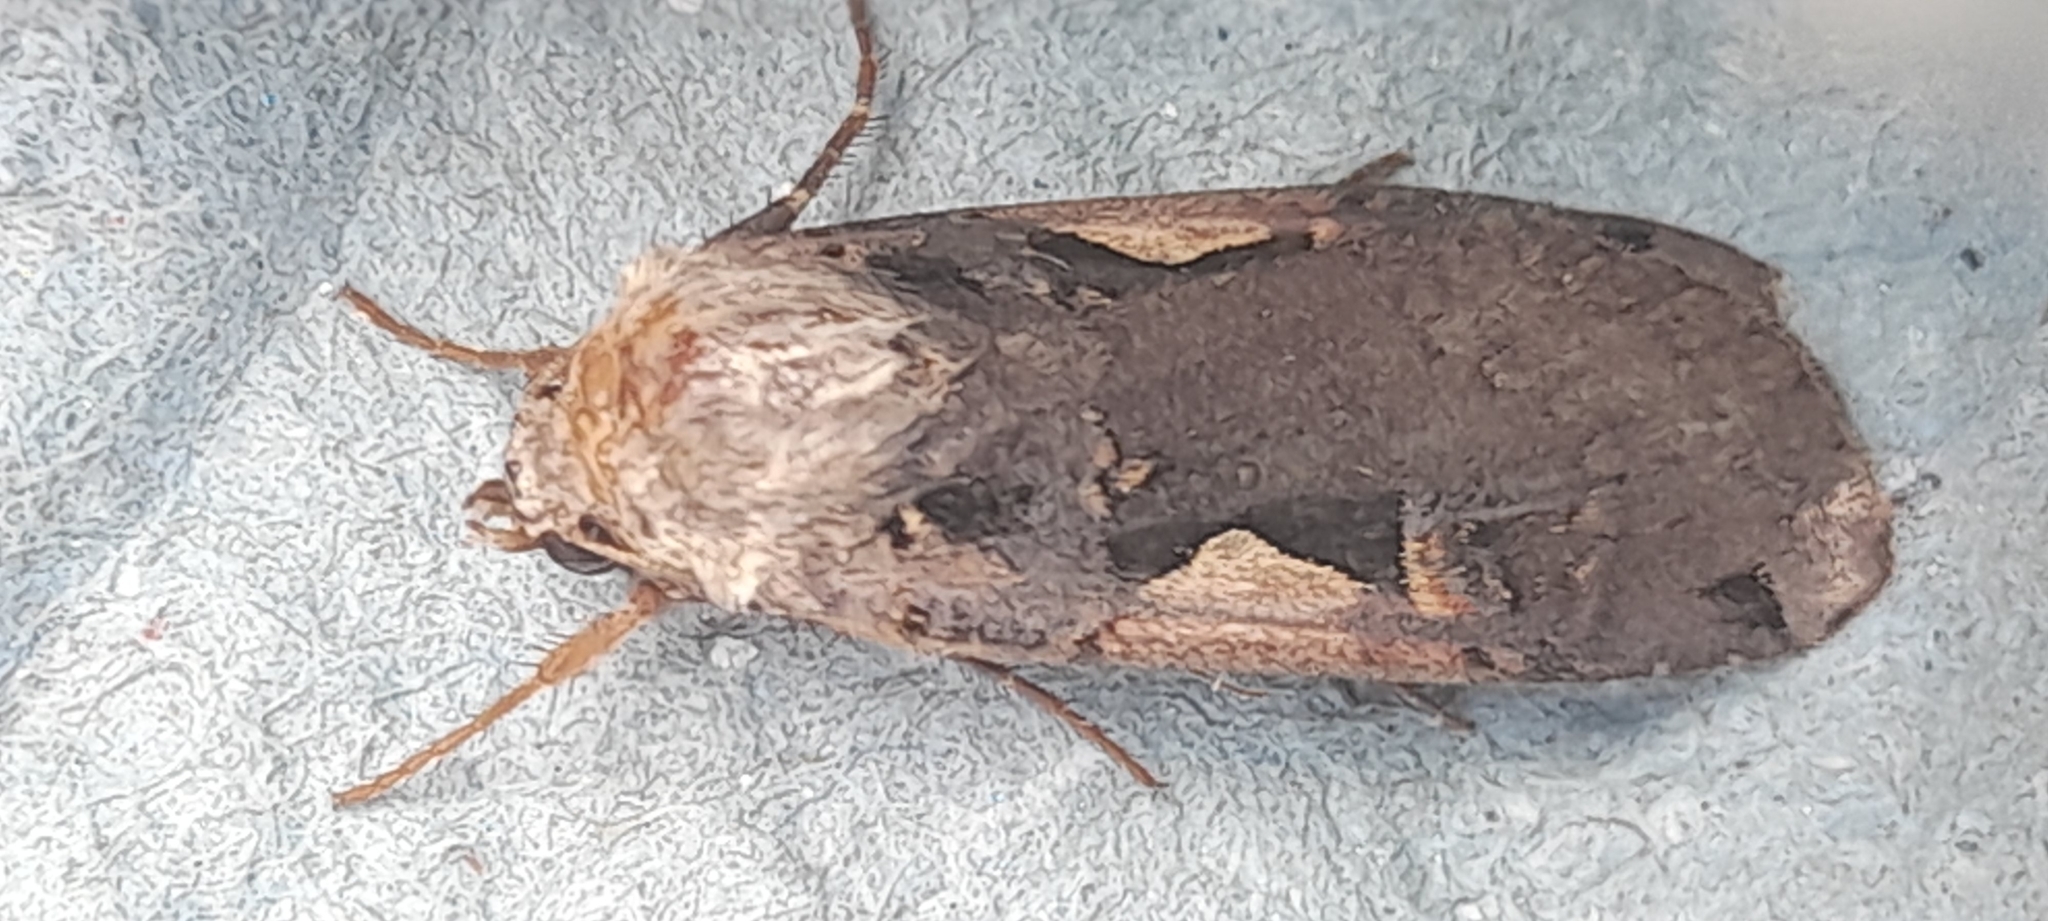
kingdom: Animalia
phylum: Arthropoda
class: Insecta
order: Lepidoptera
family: Noctuidae
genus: Xestia
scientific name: Xestia c-nigrum
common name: Setaceous hebrew character
